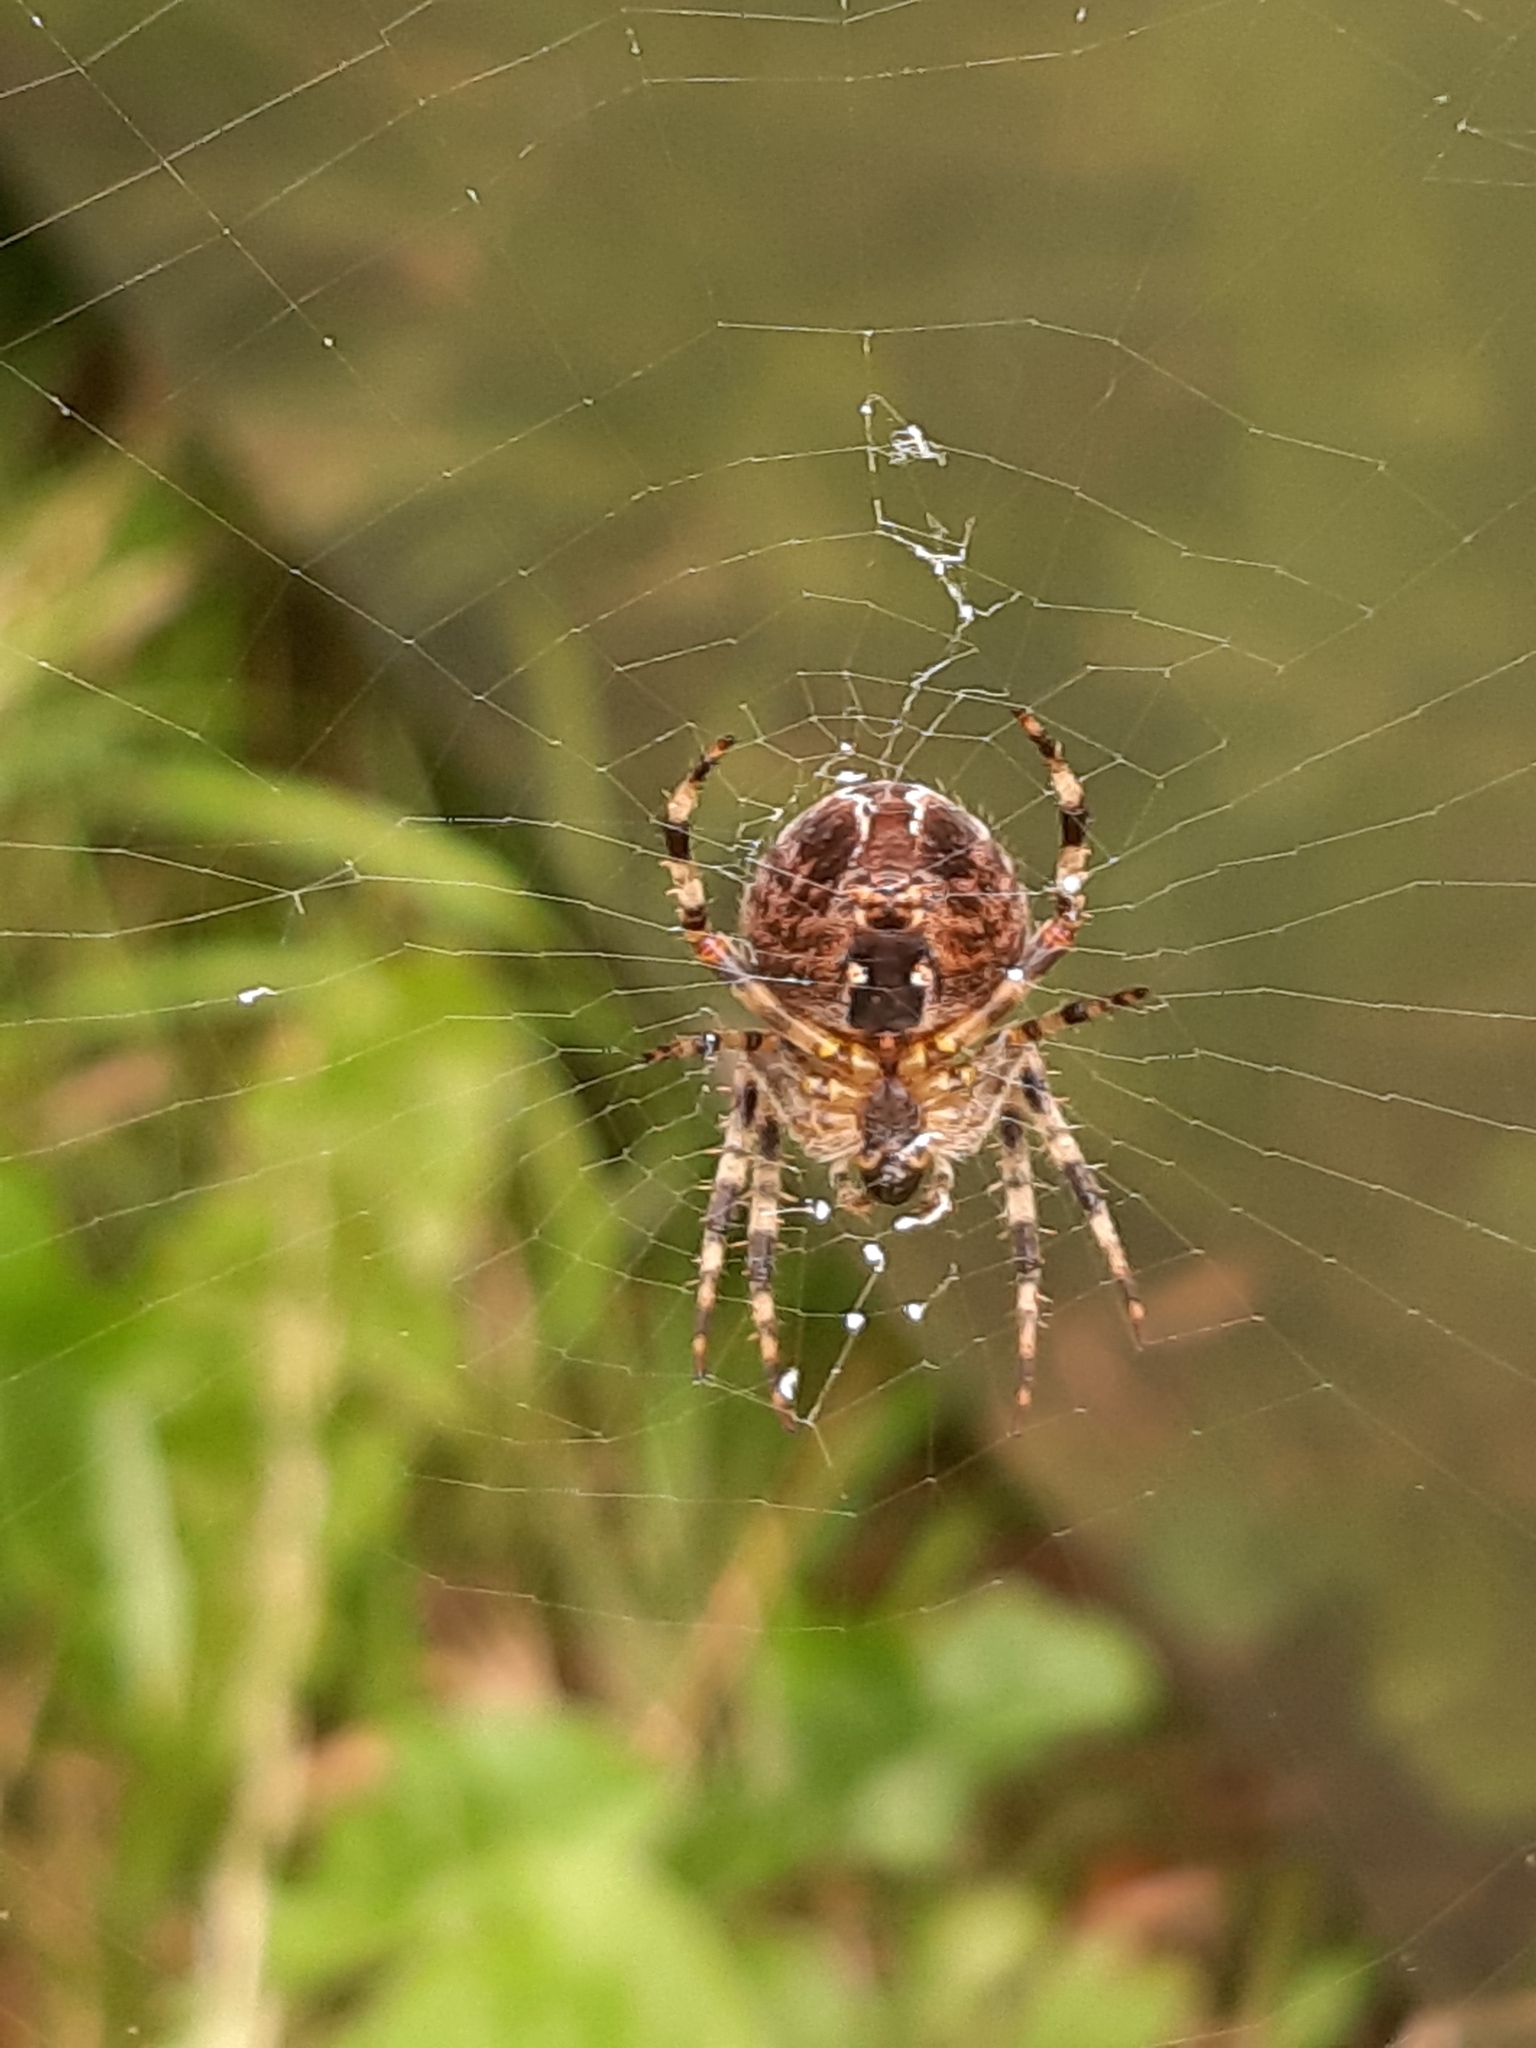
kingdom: Animalia
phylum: Arthropoda
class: Arachnida
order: Araneae
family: Araneidae
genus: Araneus
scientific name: Araneus diadematus
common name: Cross orbweaver
